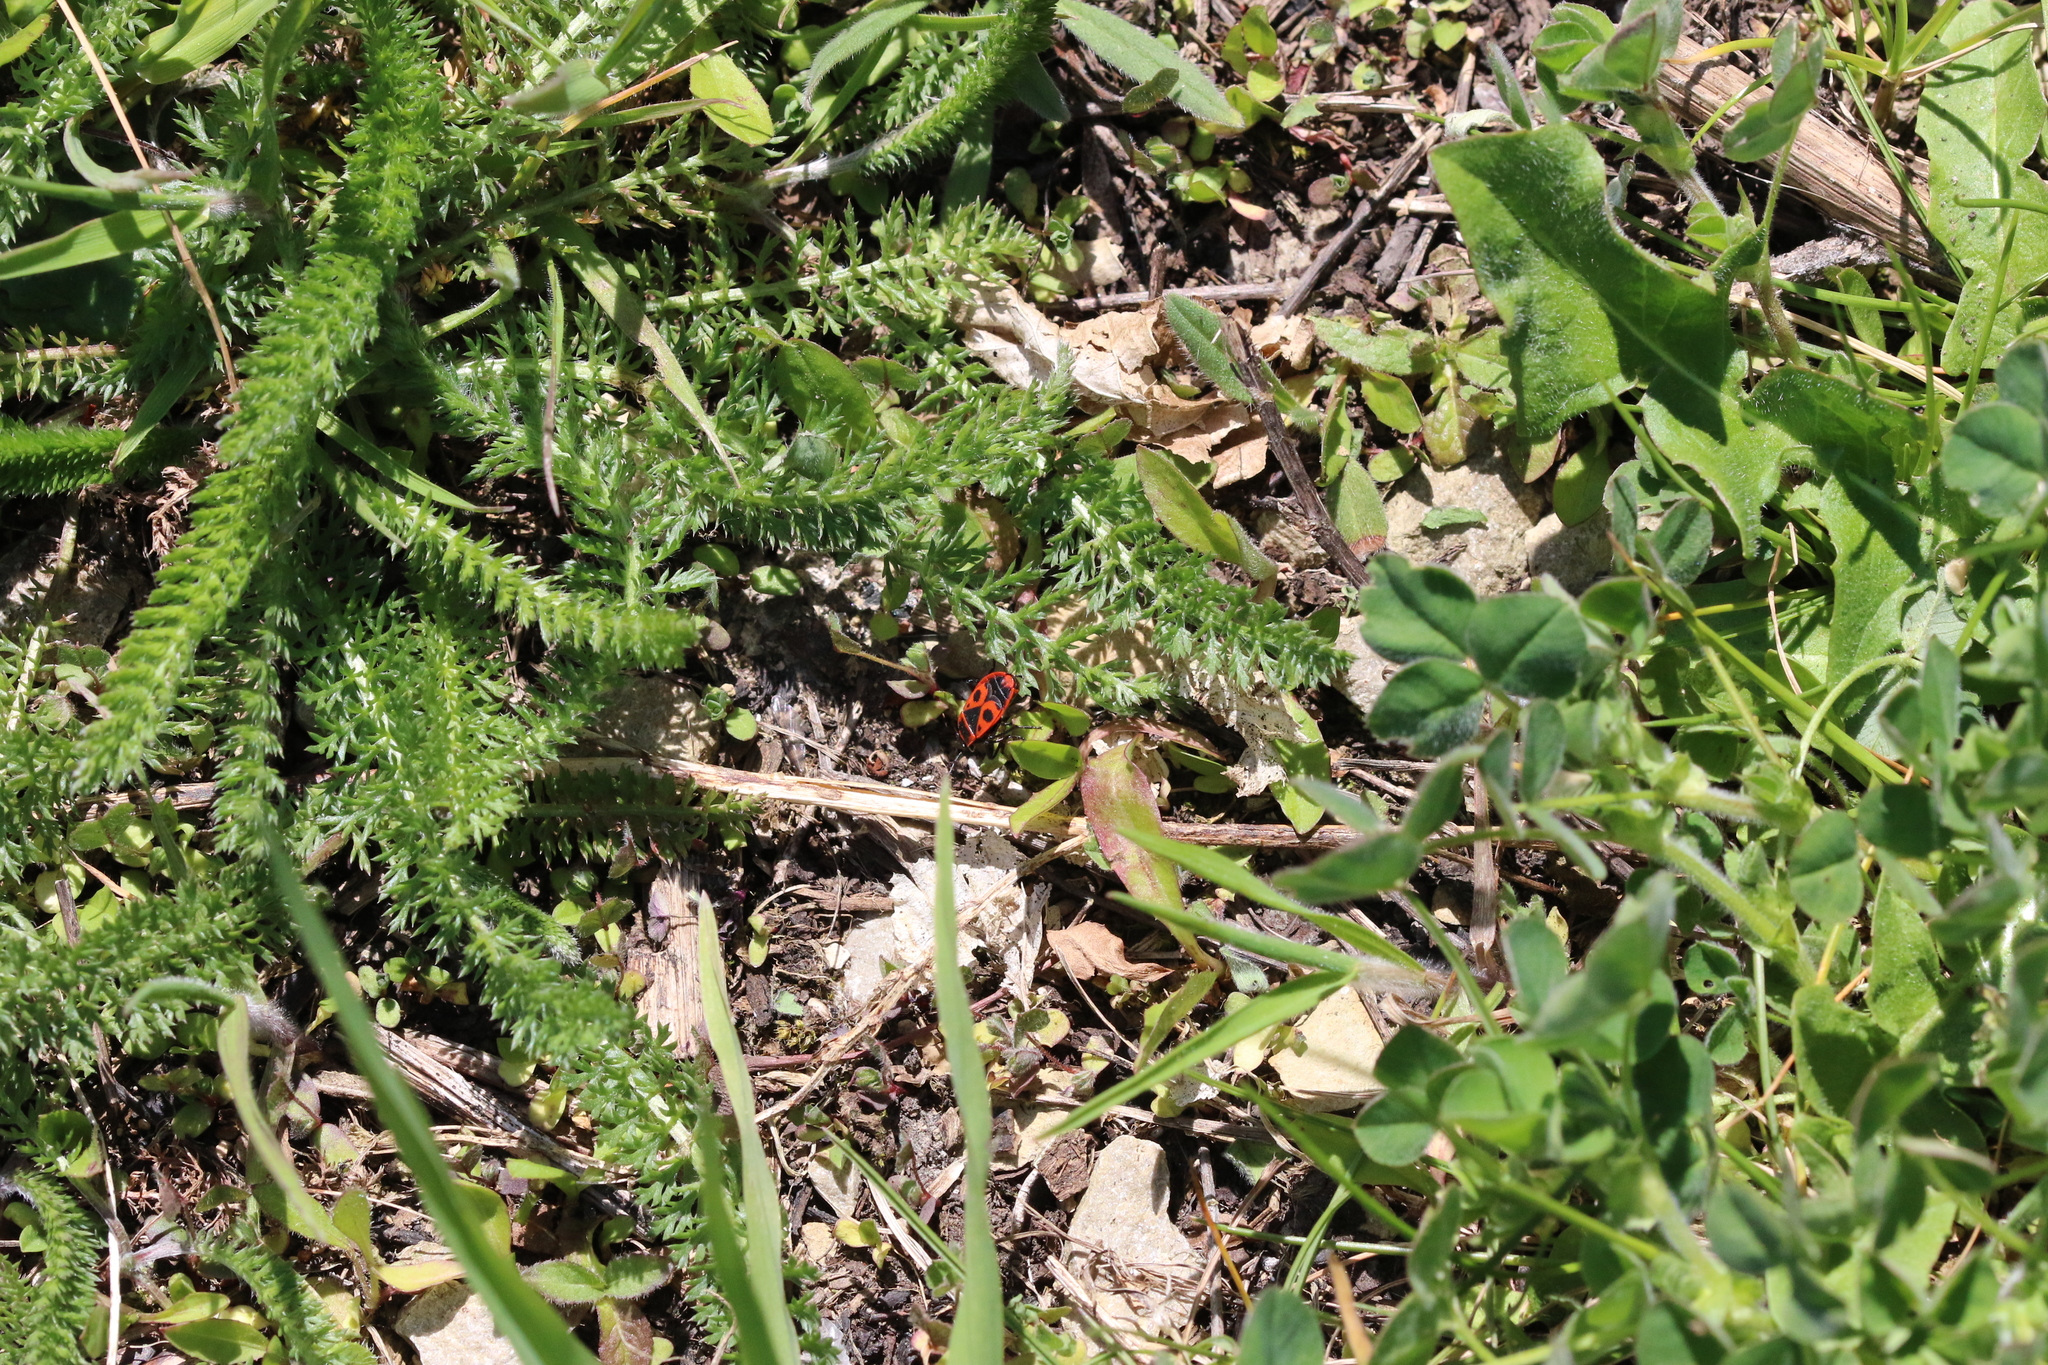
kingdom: Animalia
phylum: Arthropoda
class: Insecta
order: Hemiptera
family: Pyrrhocoridae
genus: Pyrrhocoris
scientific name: Pyrrhocoris apterus
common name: Firebug
